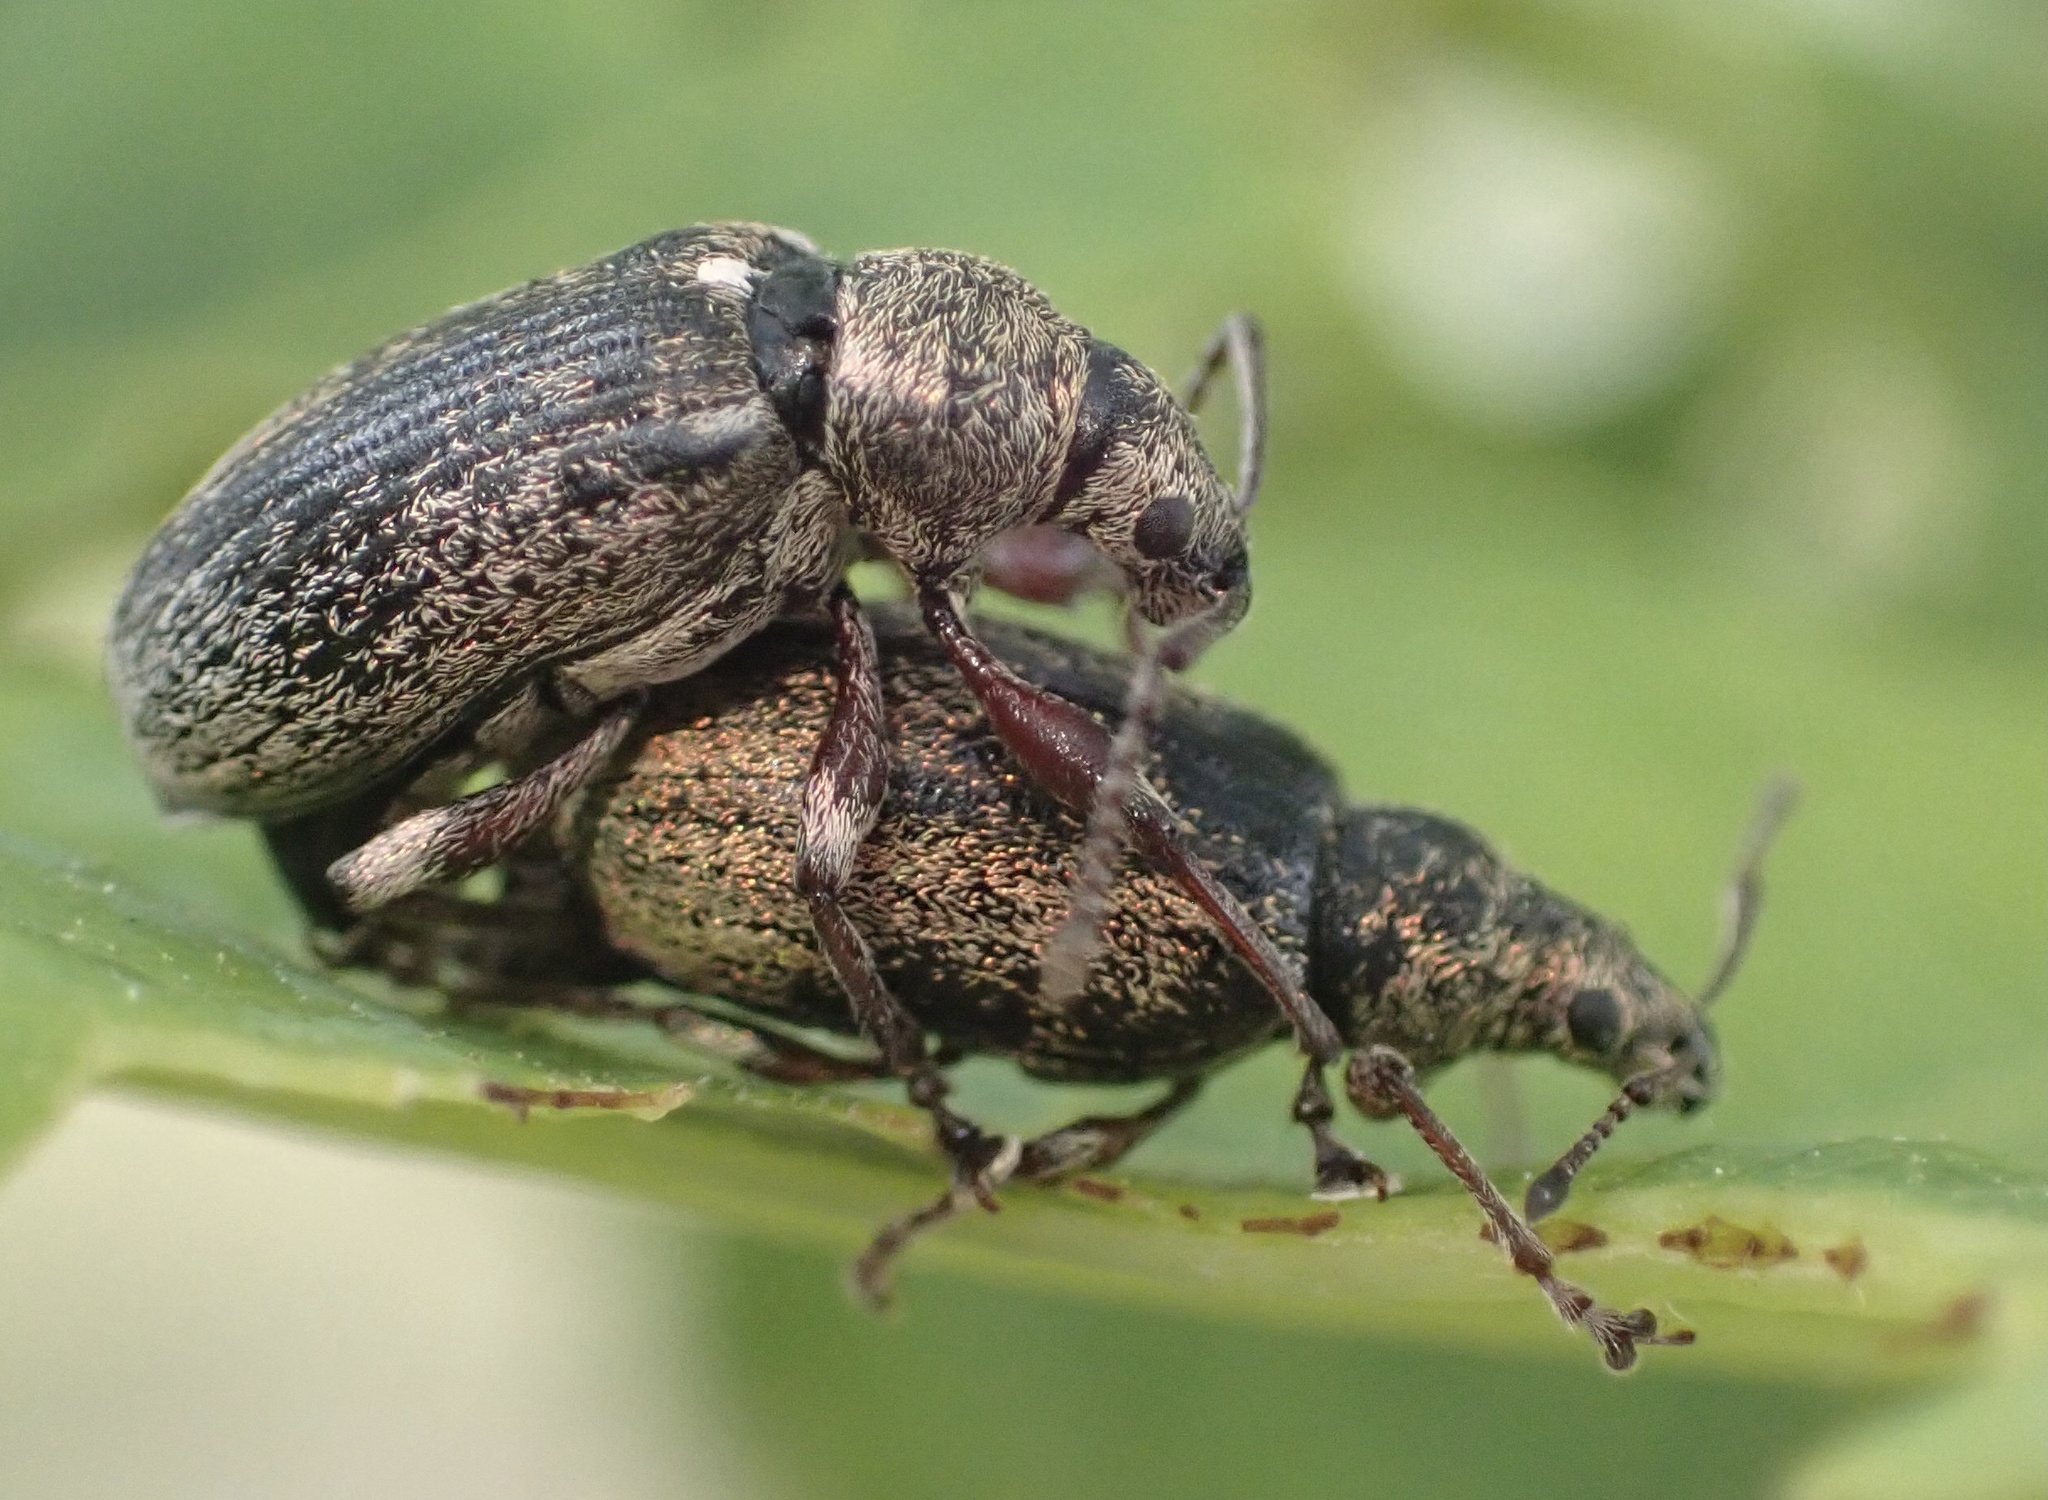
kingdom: Animalia
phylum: Arthropoda
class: Insecta
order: Coleoptera
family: Curculionidae
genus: Phyllobius
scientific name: Phyllobius pyri
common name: Common leaf weevil
